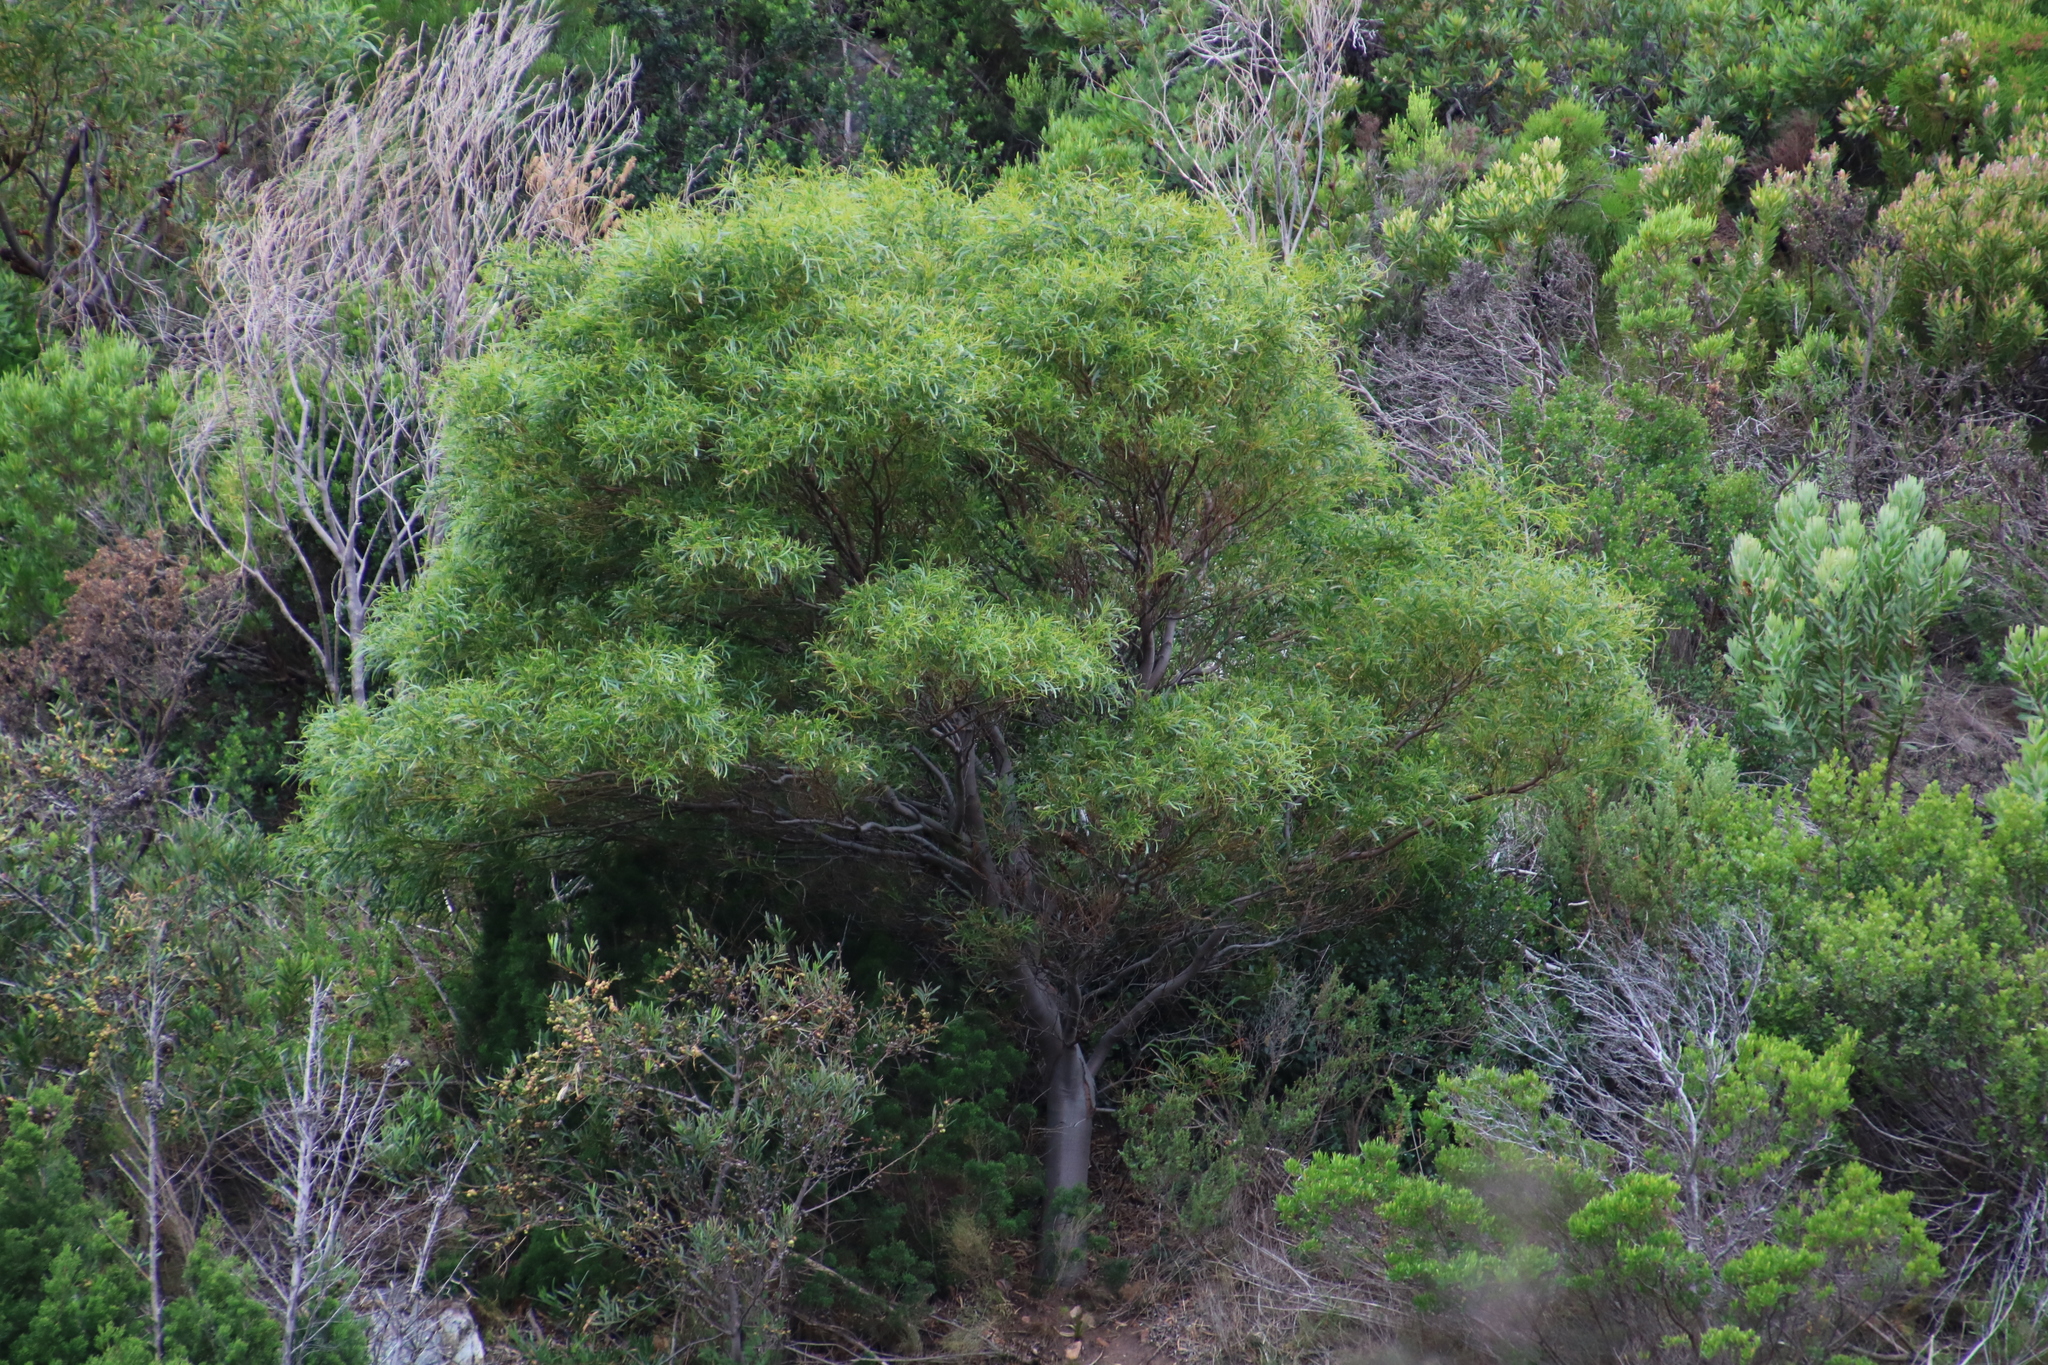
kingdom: Plantae
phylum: Tracheophyta
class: Magnoliopsida
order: Fabales
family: Fabaceae
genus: Acacia
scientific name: Acacia saligna
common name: Orange wattle
